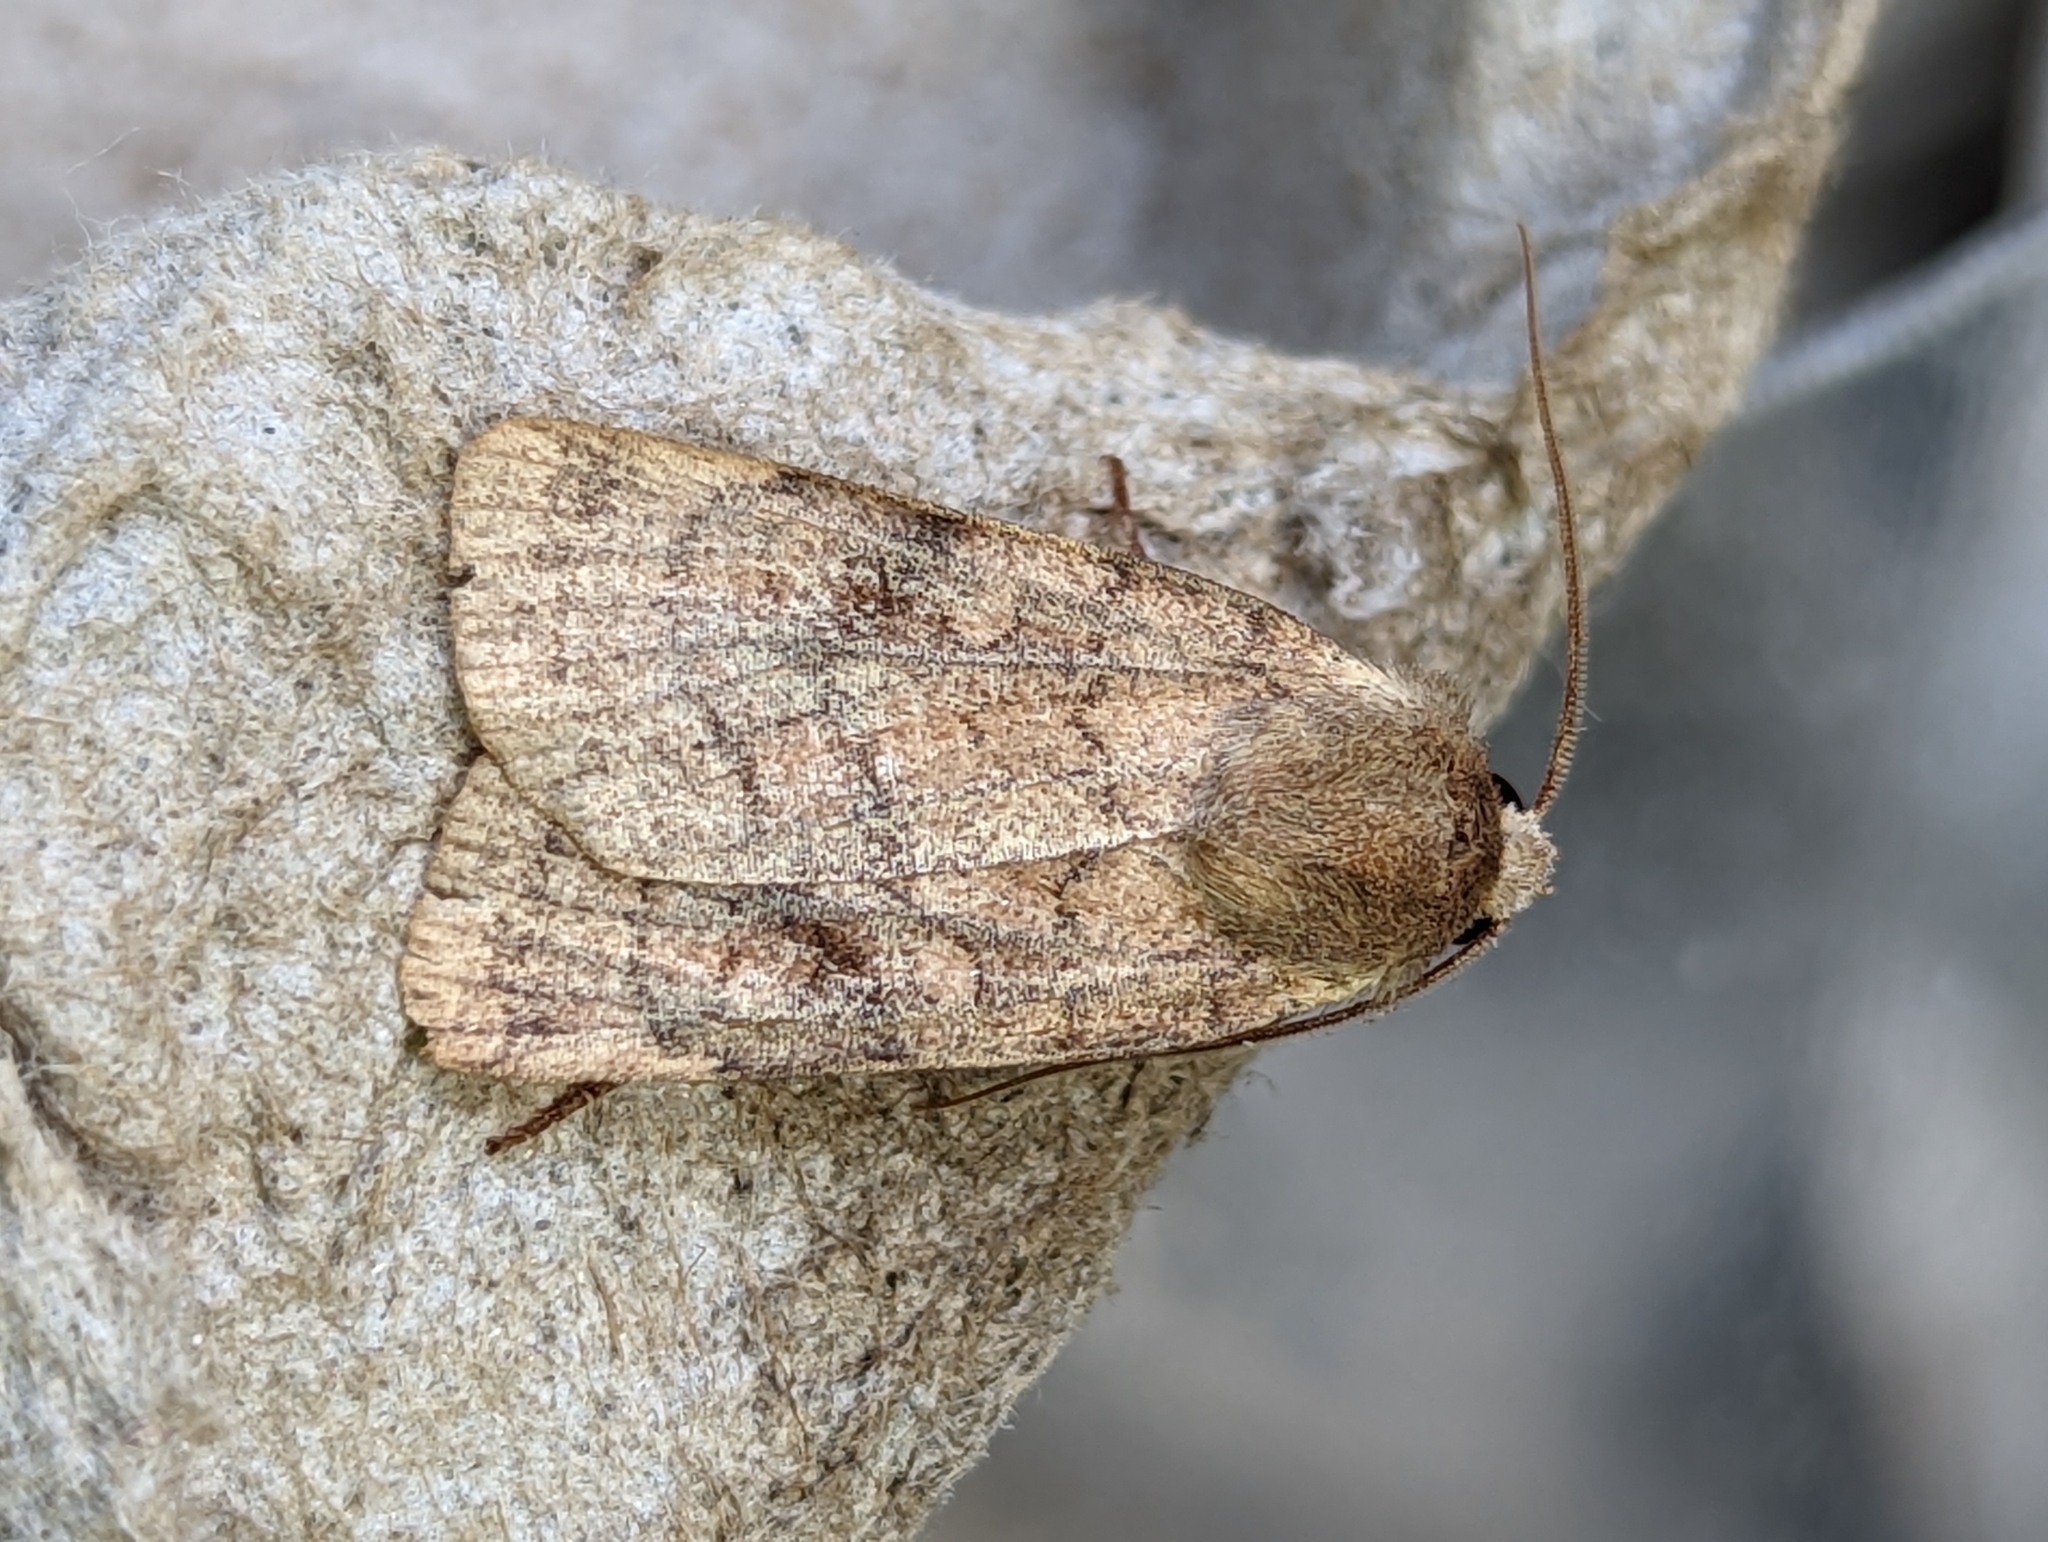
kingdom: Animalia
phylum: Arthropoda
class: Insecta
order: Lepidoptera
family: Noctuidae
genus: Xestia
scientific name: Xestia sexstrigata
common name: Six-striped rustic
